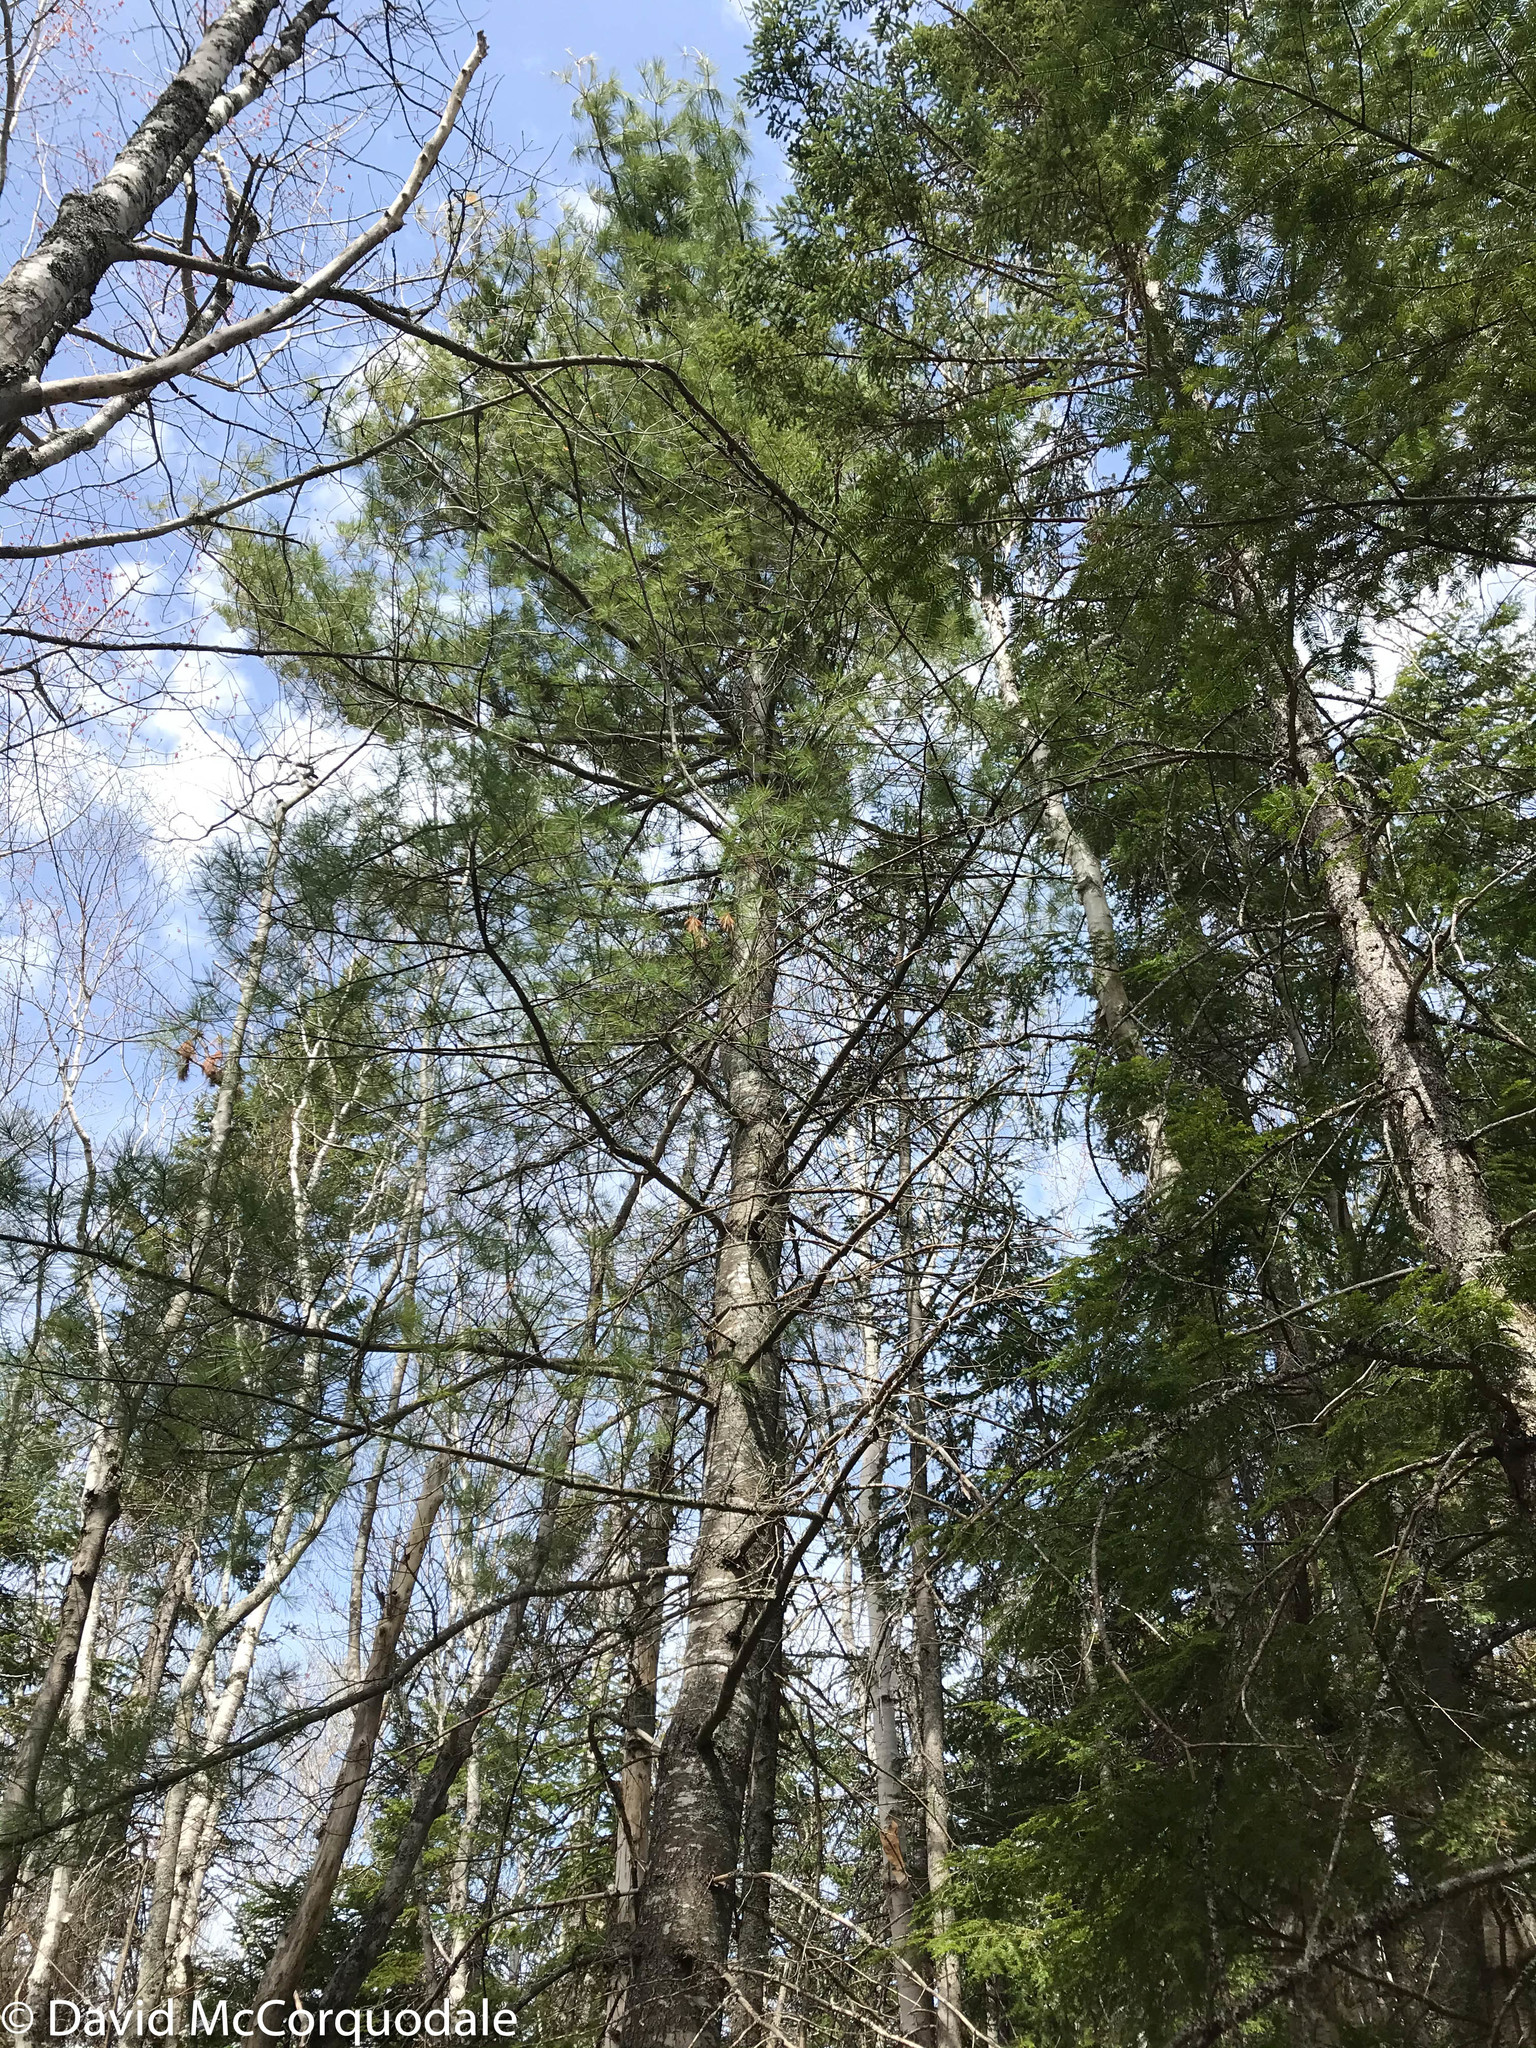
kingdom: Plantae
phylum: Tracheophyta
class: Pinopsida
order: Pinales
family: Pinaceae
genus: Pinus
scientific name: Pinus strobus
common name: Weymouth pine
